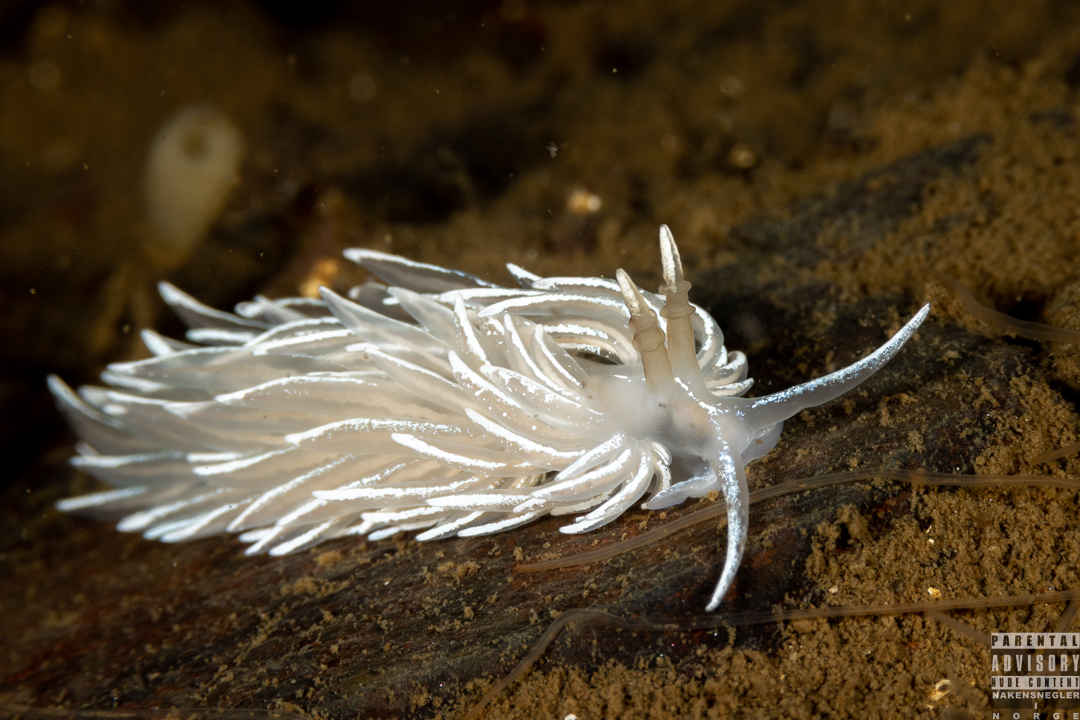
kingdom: Animalia
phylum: Mollusca
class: Gastropoda
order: Nudibranchia
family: Facelinidae
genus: Favorinus
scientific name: Favorinus blianus
